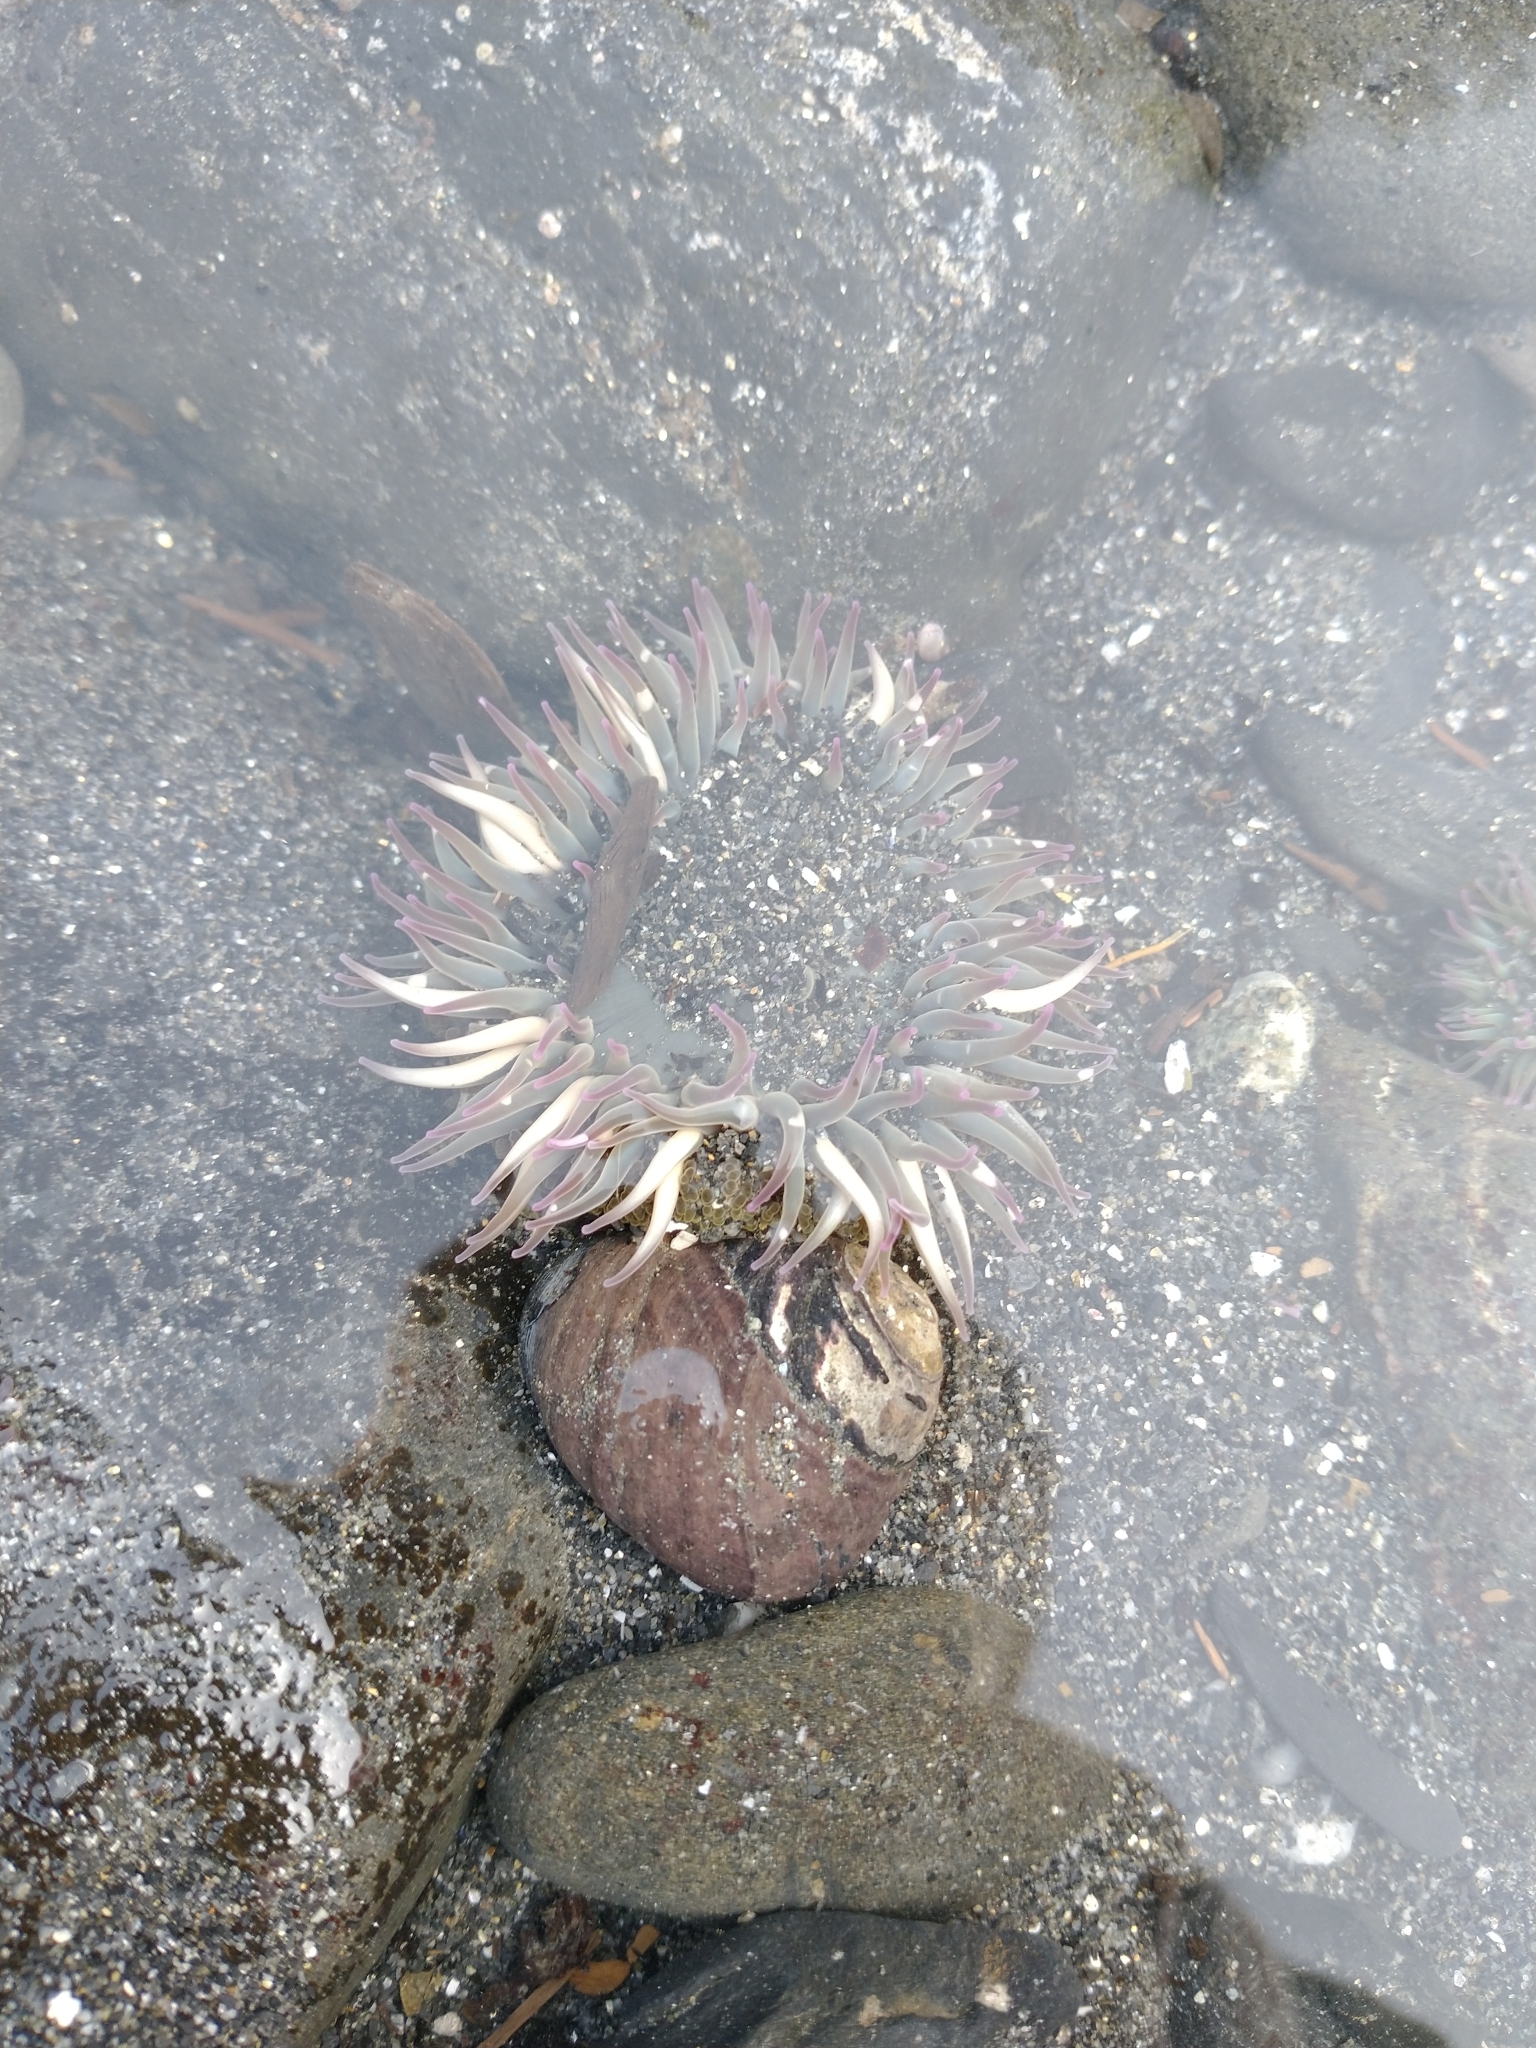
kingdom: Animalia
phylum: Cnidaria
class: Anthozoa
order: Actiniaria
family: Actiniidae
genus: Anthopleura
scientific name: Anthopleura elegantissima
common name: Clonal anemone
